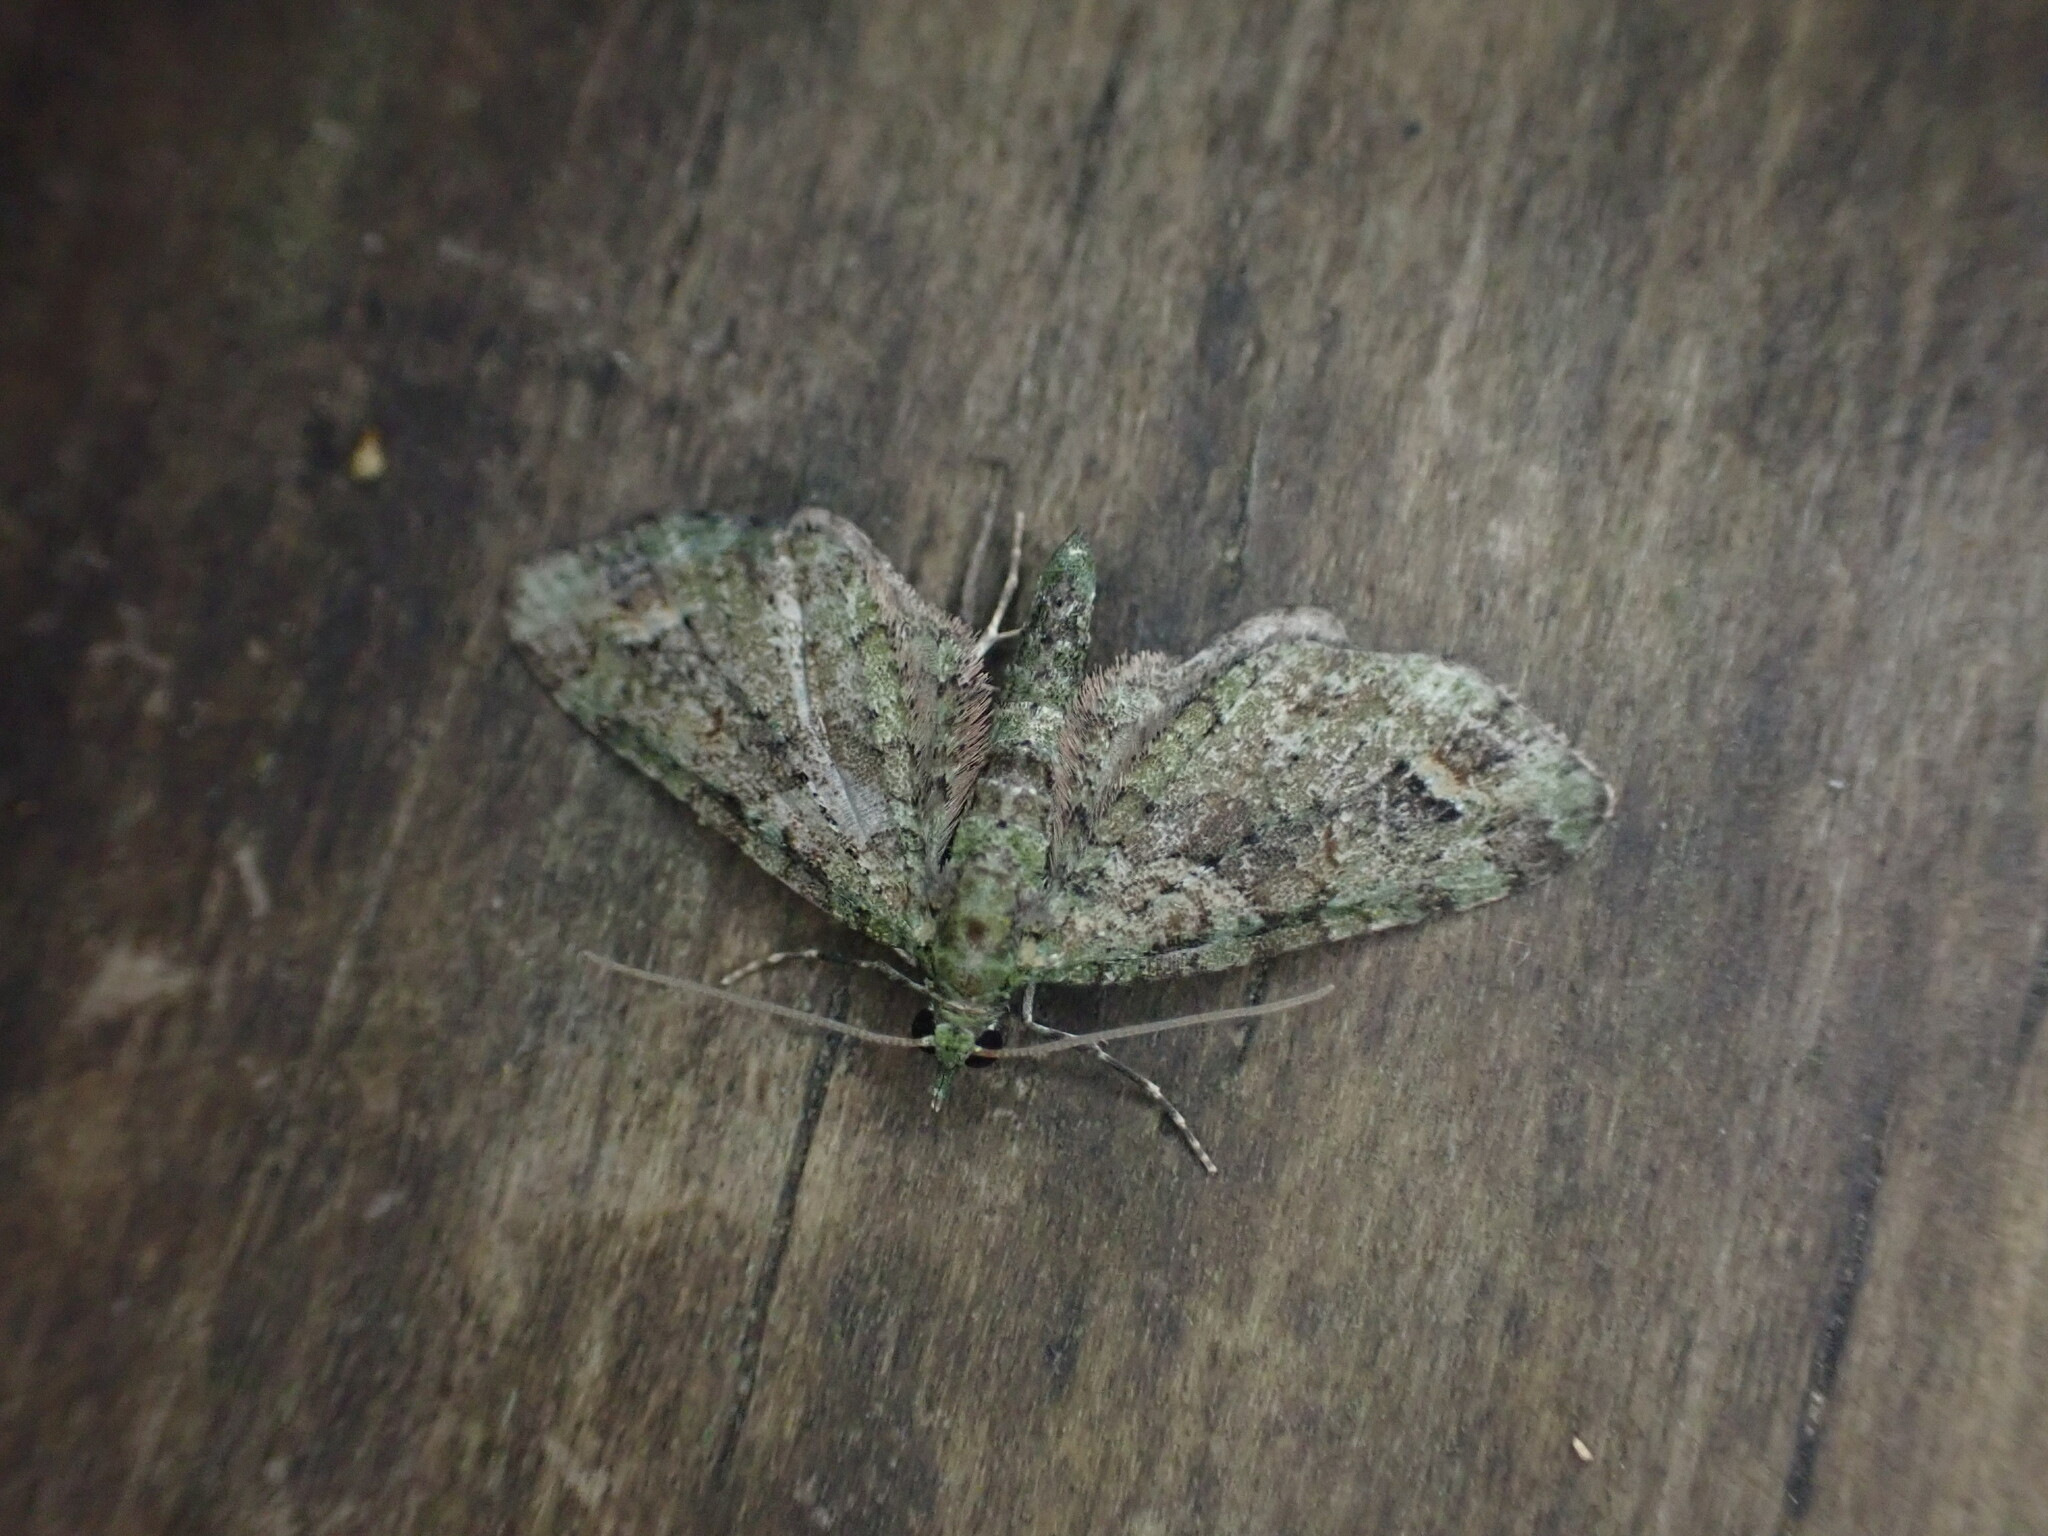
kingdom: Animalia
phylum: Arthropoda
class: Insecta
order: Lepidoptera
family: Geometridae
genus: Idaea
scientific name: Idaea mutanda
